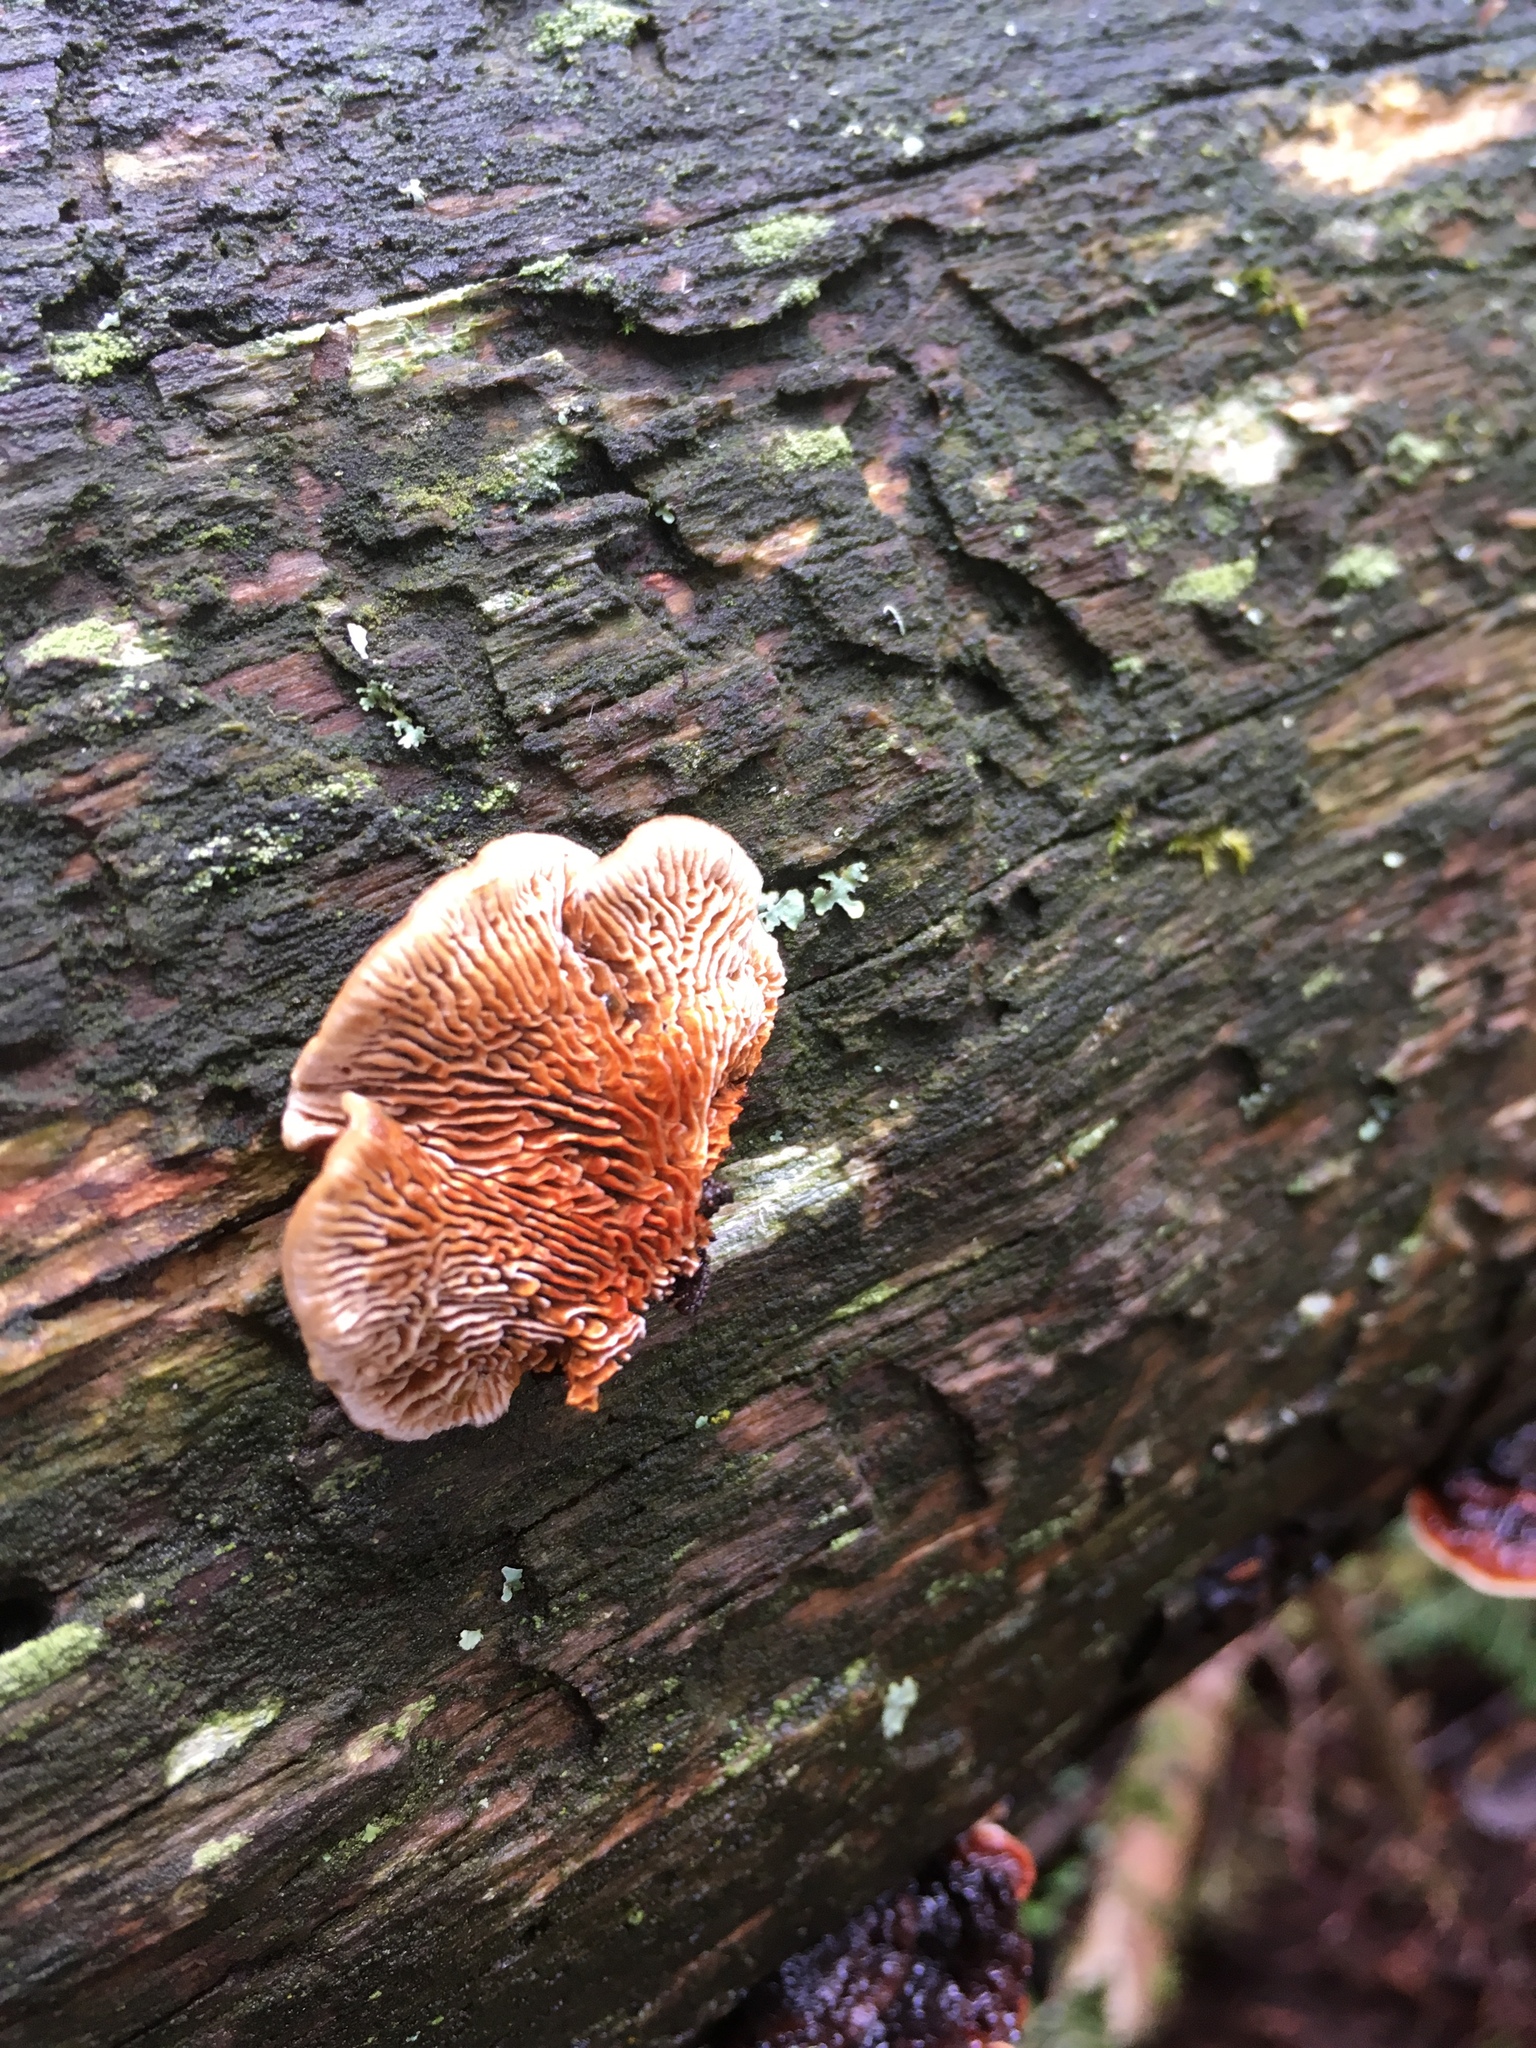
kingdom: Fungi
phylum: Basidiomycota
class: Agaricomycetes
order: Gloeophyllales
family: Gloeophyllaceae
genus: Gloeophyllum
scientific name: Gloeophyllum sepiarium
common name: Conifer mazegill
